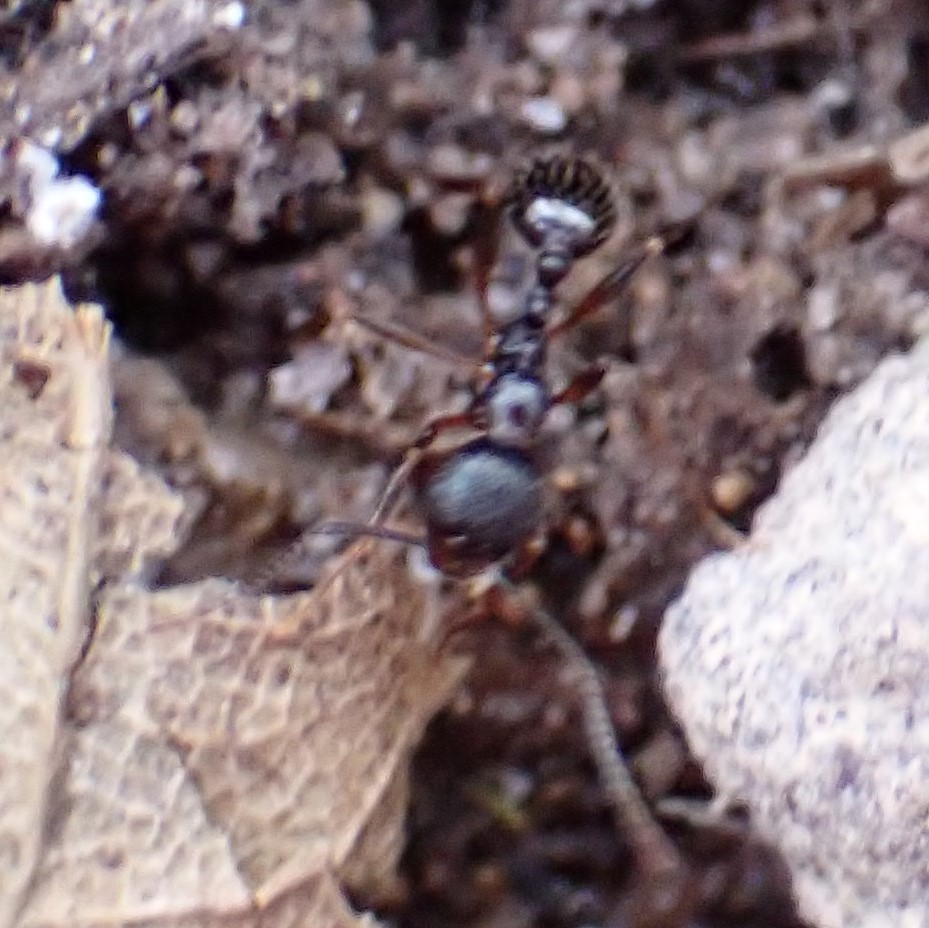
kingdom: Animalia
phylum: Arthropoda
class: Insecta
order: Hymenoptera
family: Formicidae
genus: Aphaenogaster
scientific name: Aphaenogaster
